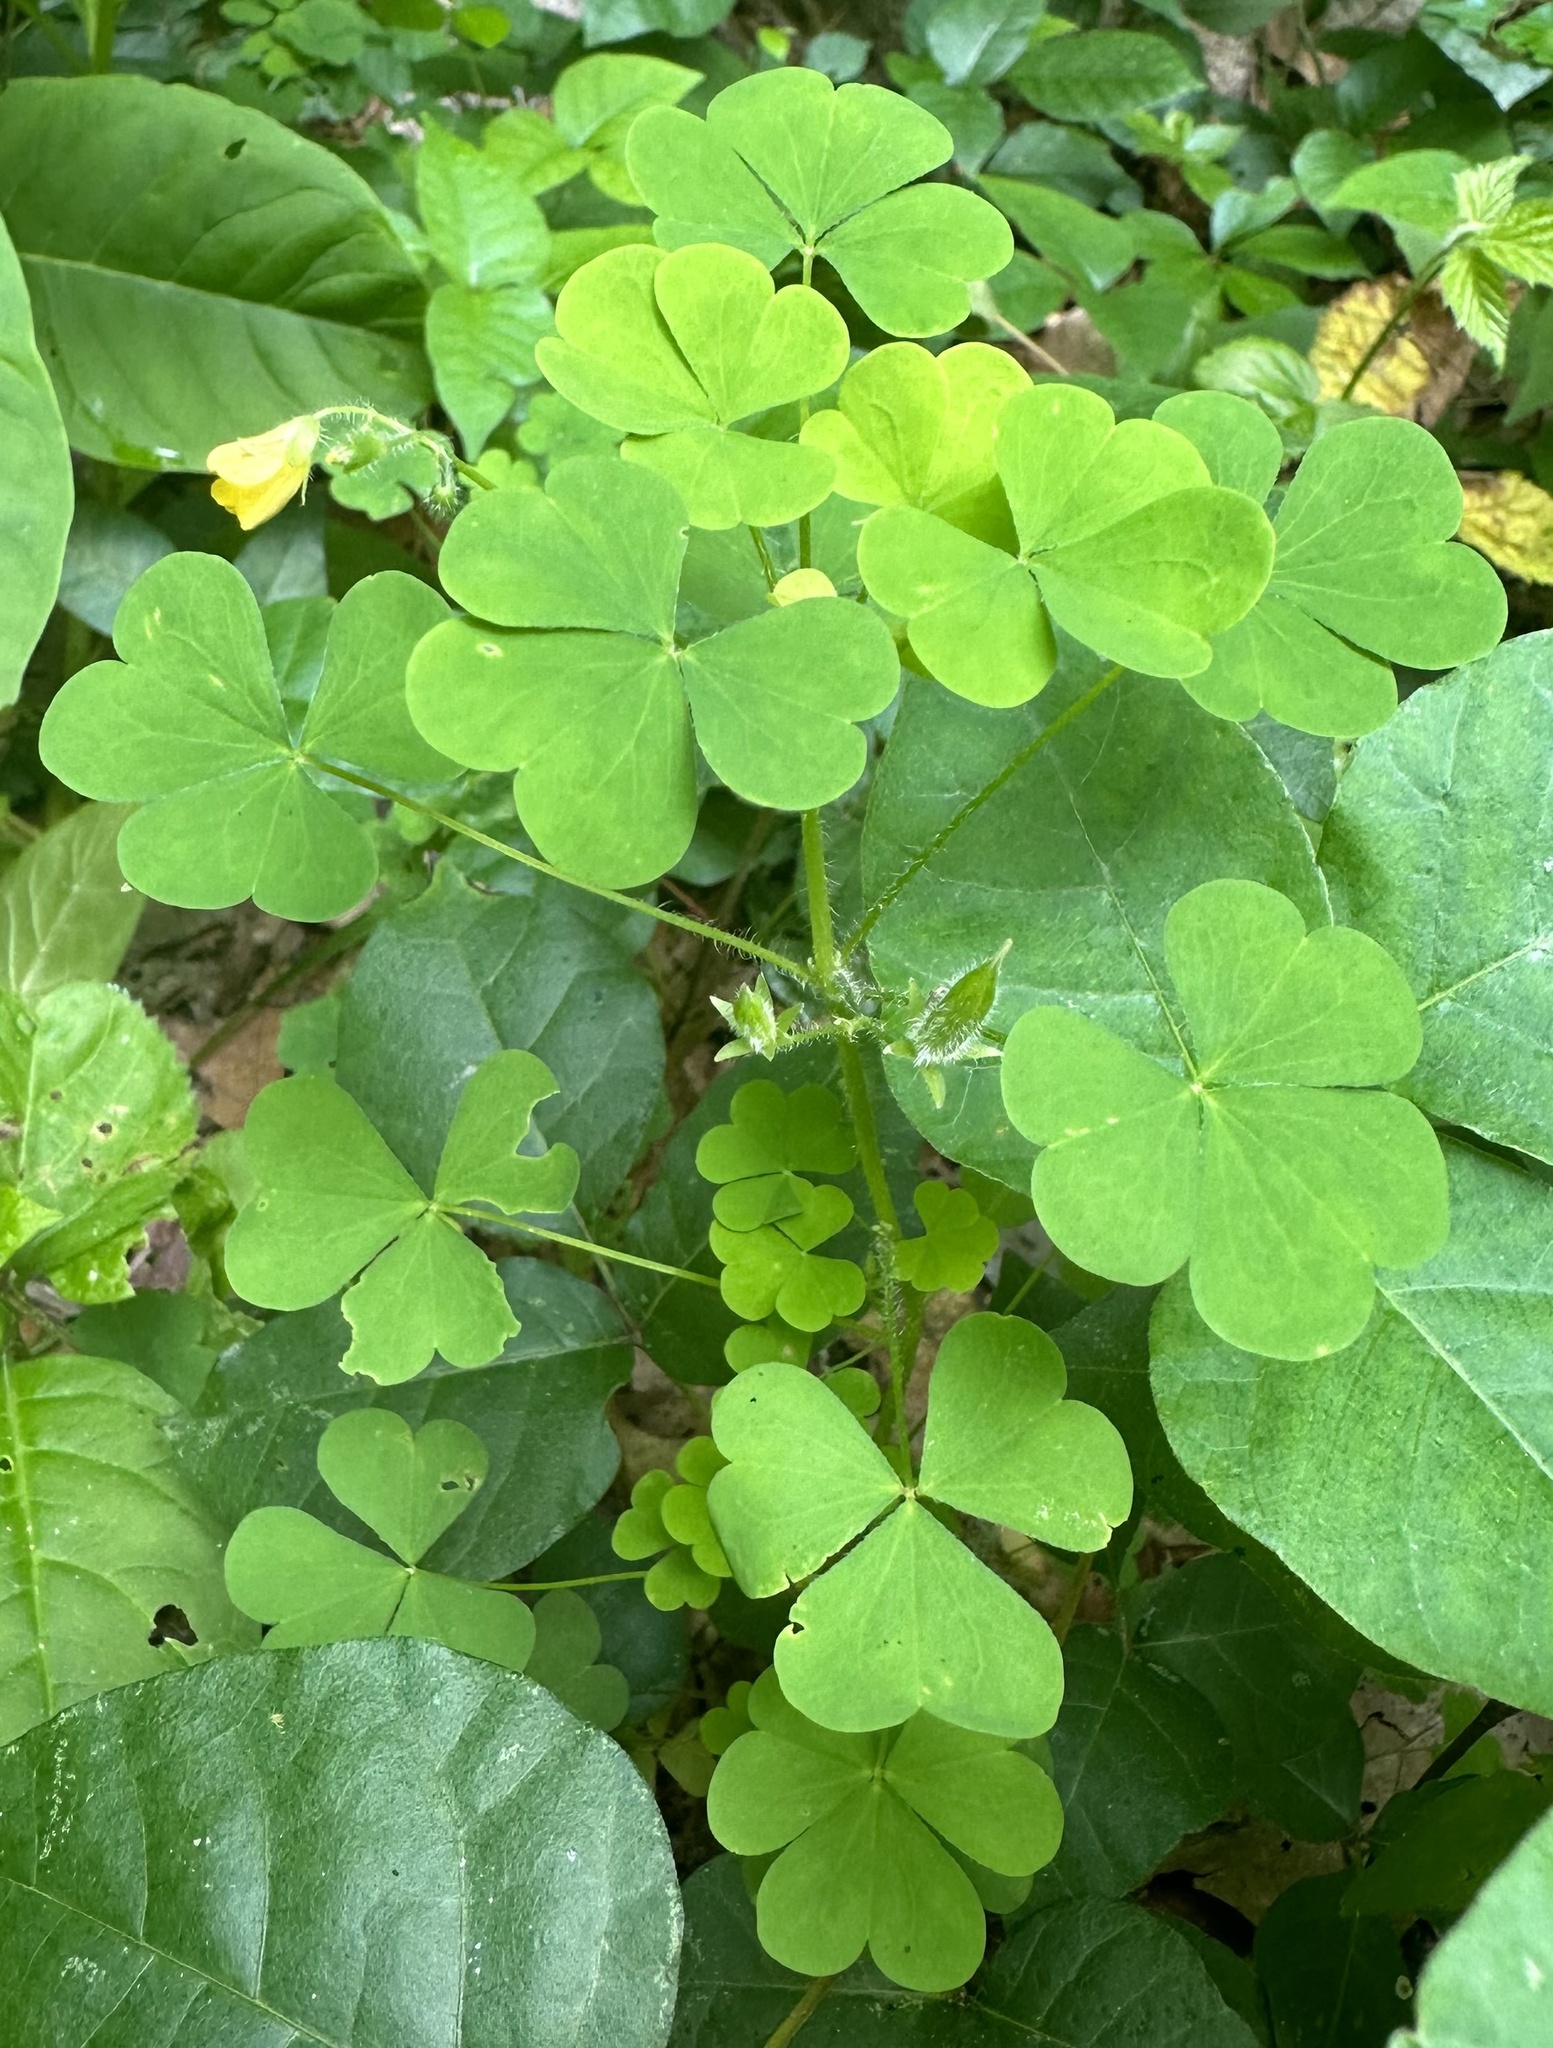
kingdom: Plantae
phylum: Tracheophyta
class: Magnoliopsida
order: Oxalidales
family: Oxalidaceae
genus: Oxalis
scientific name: Oxalis stricta
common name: Upright yellow-sorrel
